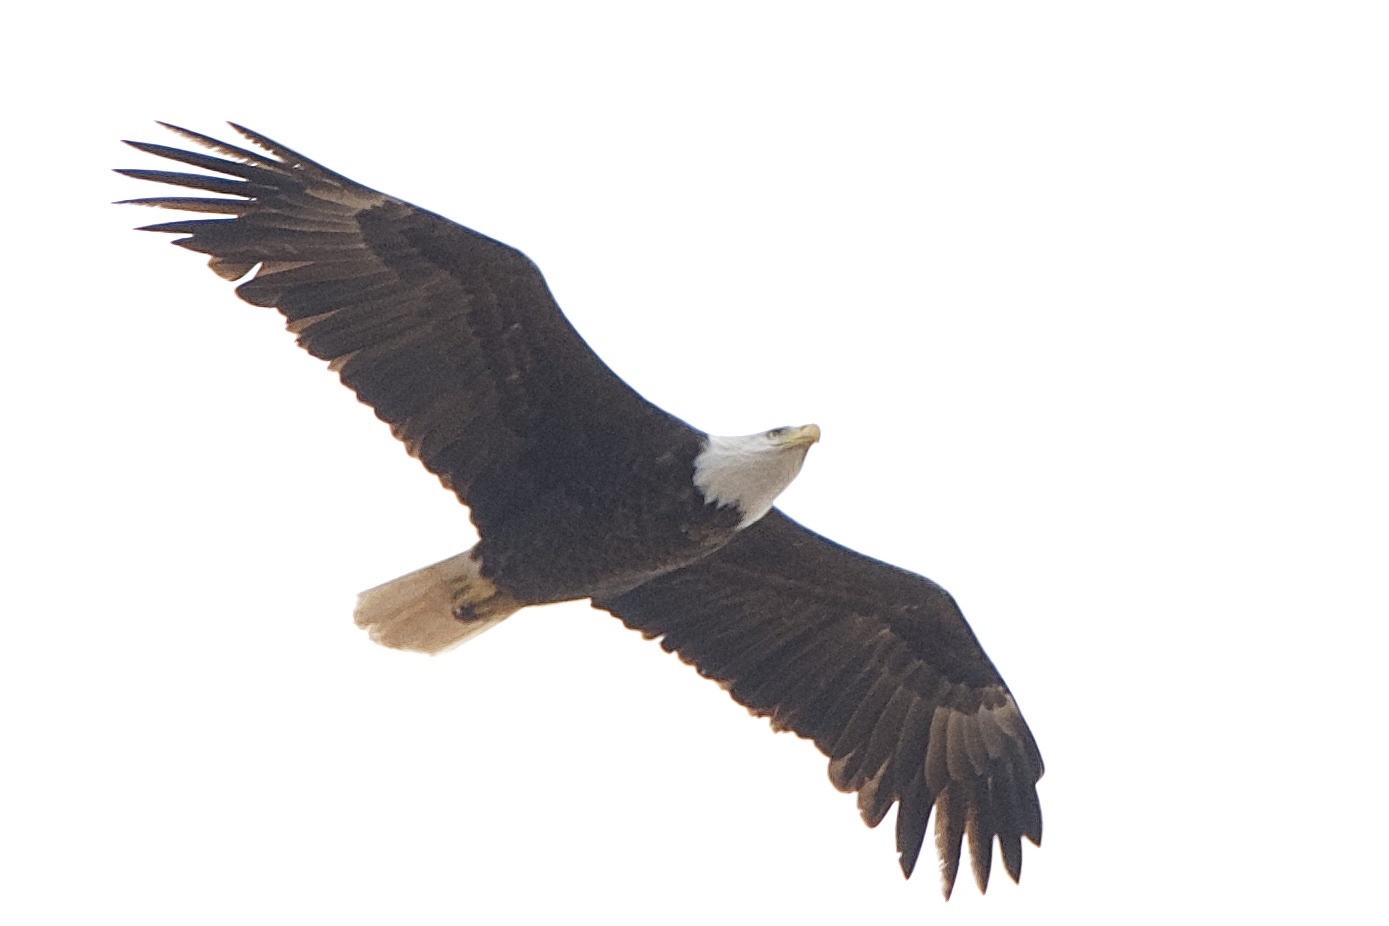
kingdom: Animalia
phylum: Chordata
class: Aves
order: Accipitriformes
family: Accipitridae
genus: Haliaeetus
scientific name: Haliaeetus leucocephalus
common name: Bald eagle
